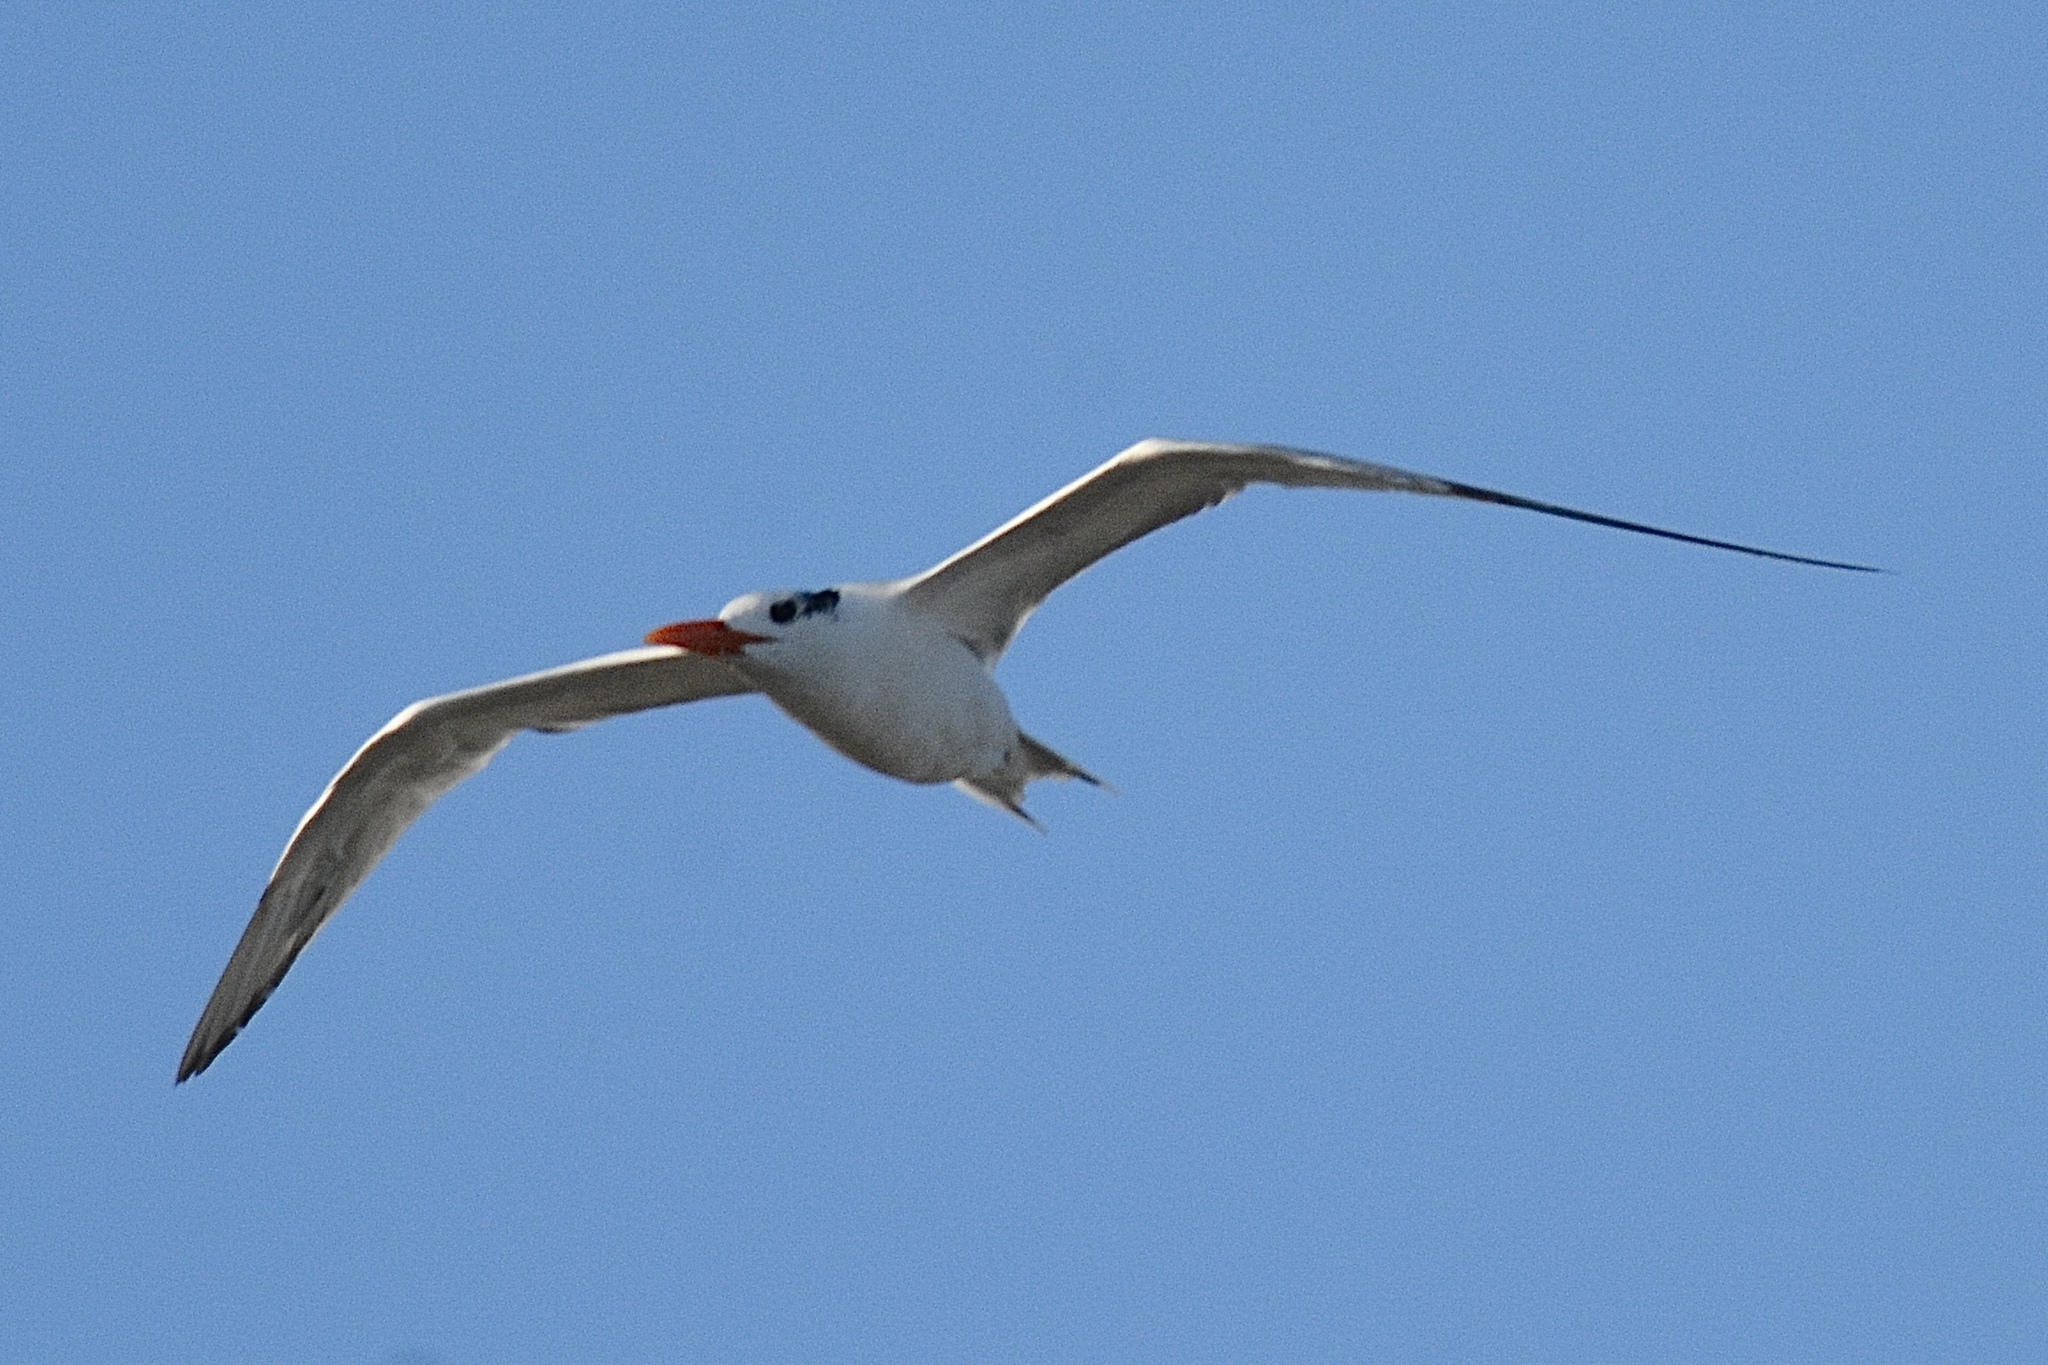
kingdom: Animalia
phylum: Chordata
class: Aves
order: Charadriiformes
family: Laridae
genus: Thalasseus
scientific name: Thalasseus maximus
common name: Royal tern
